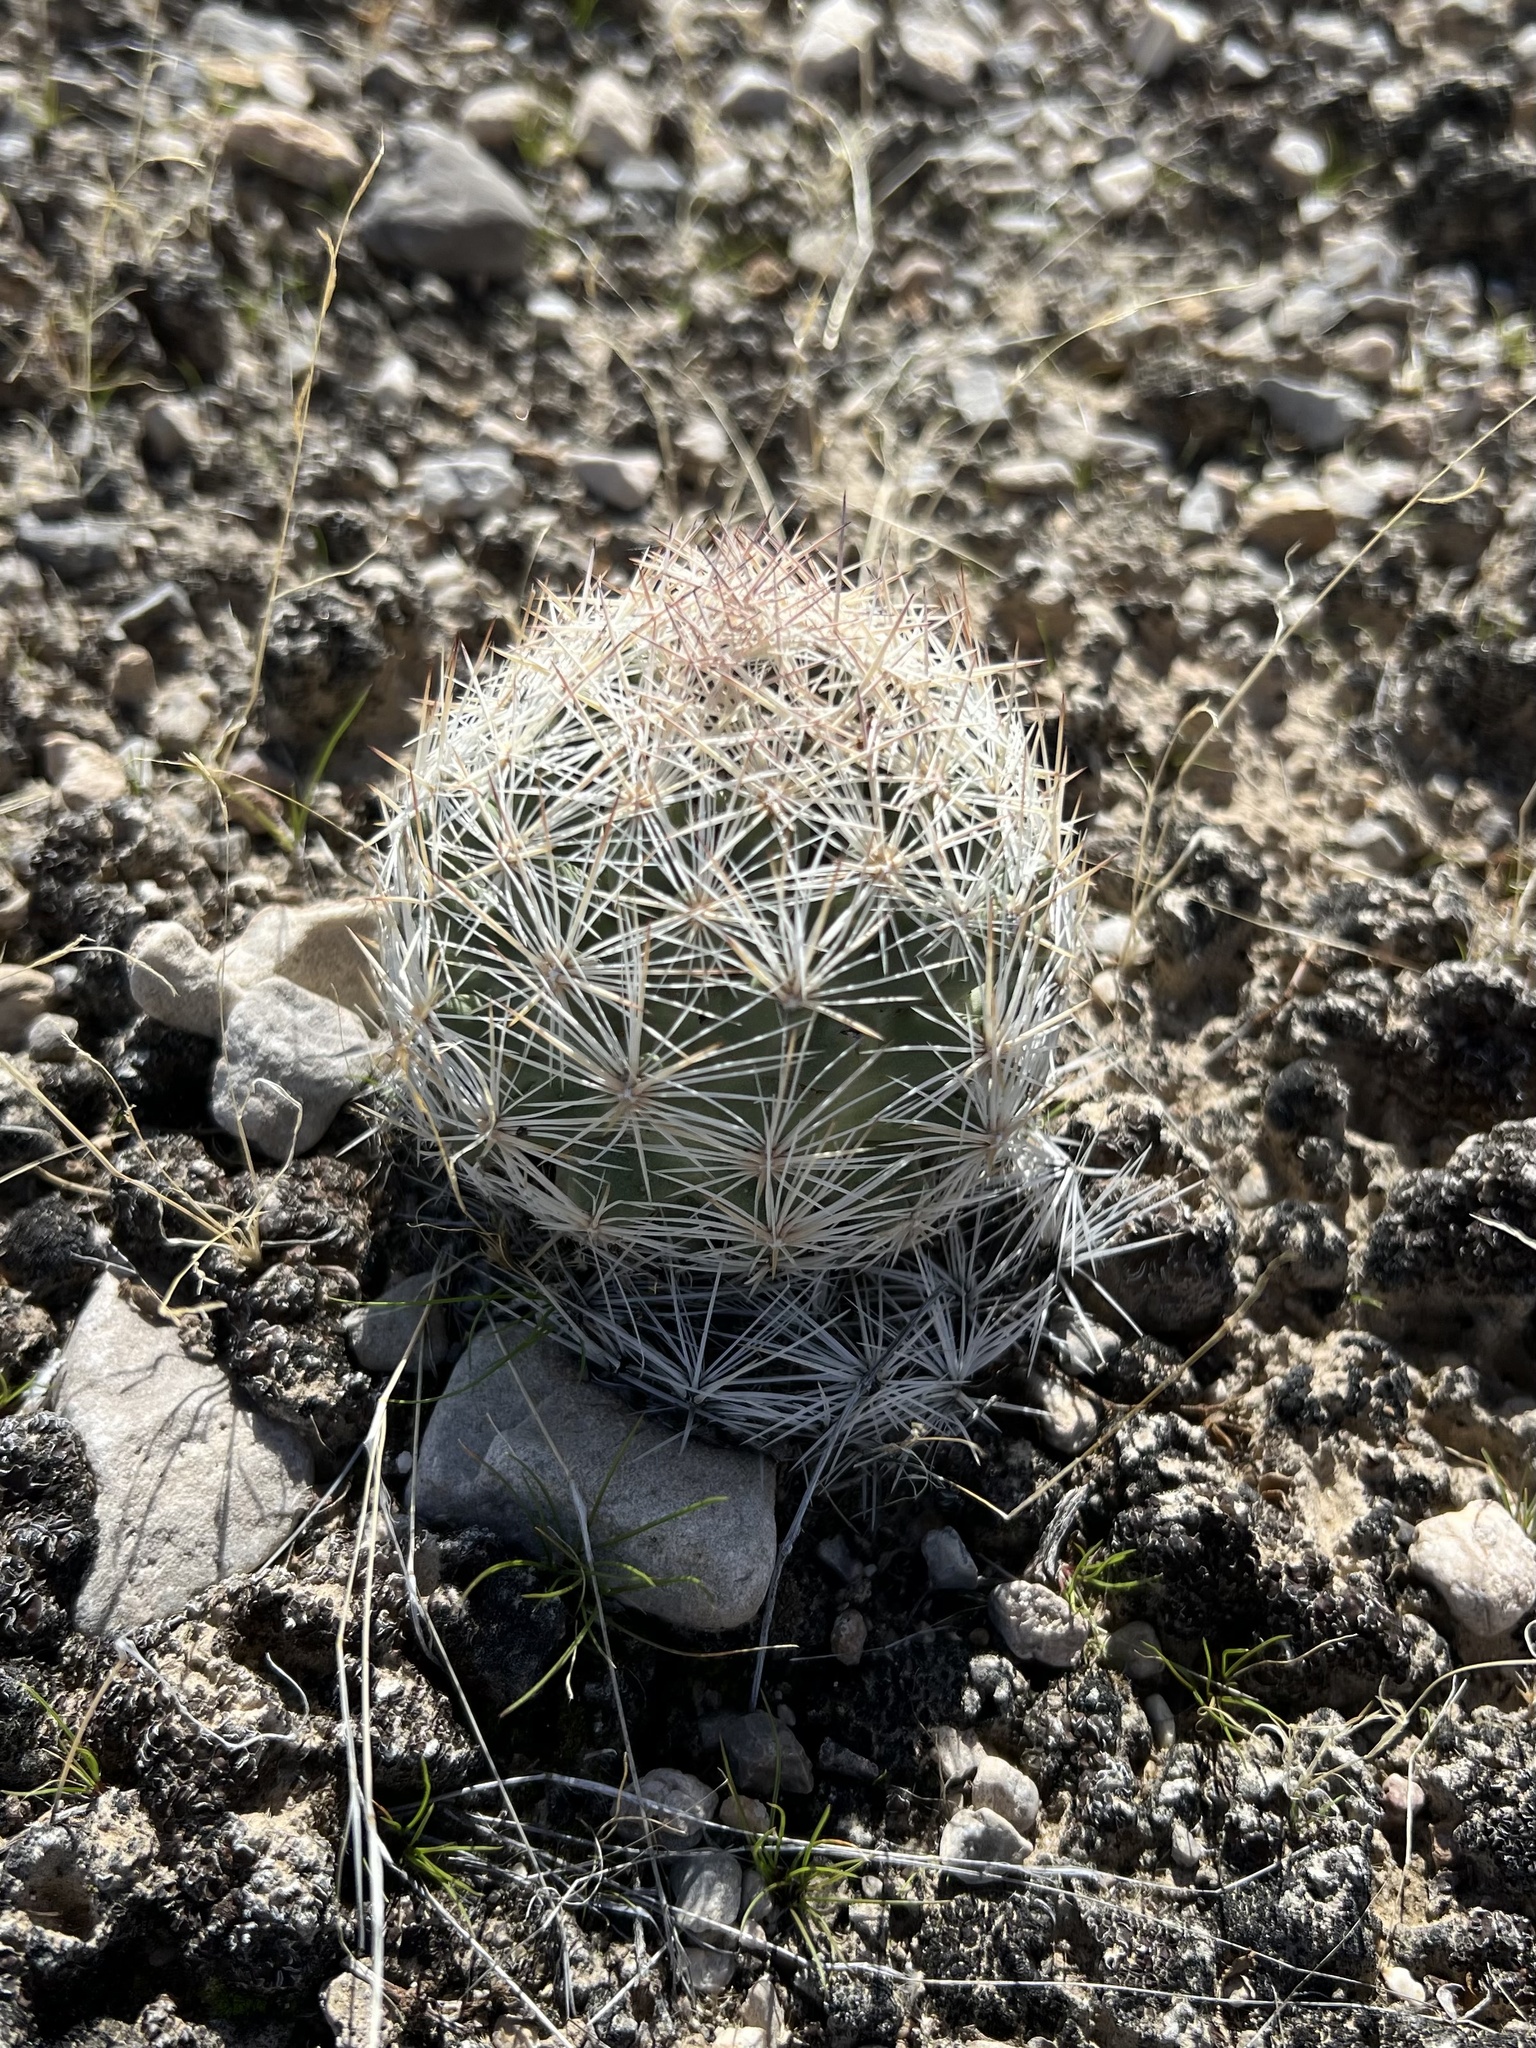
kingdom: Plantae
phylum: Tracheophyta
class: Magnoliopsida
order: Caryophyllales
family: Cactaceae
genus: Pelecyphora
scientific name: Pelecyphora dasyacantha
